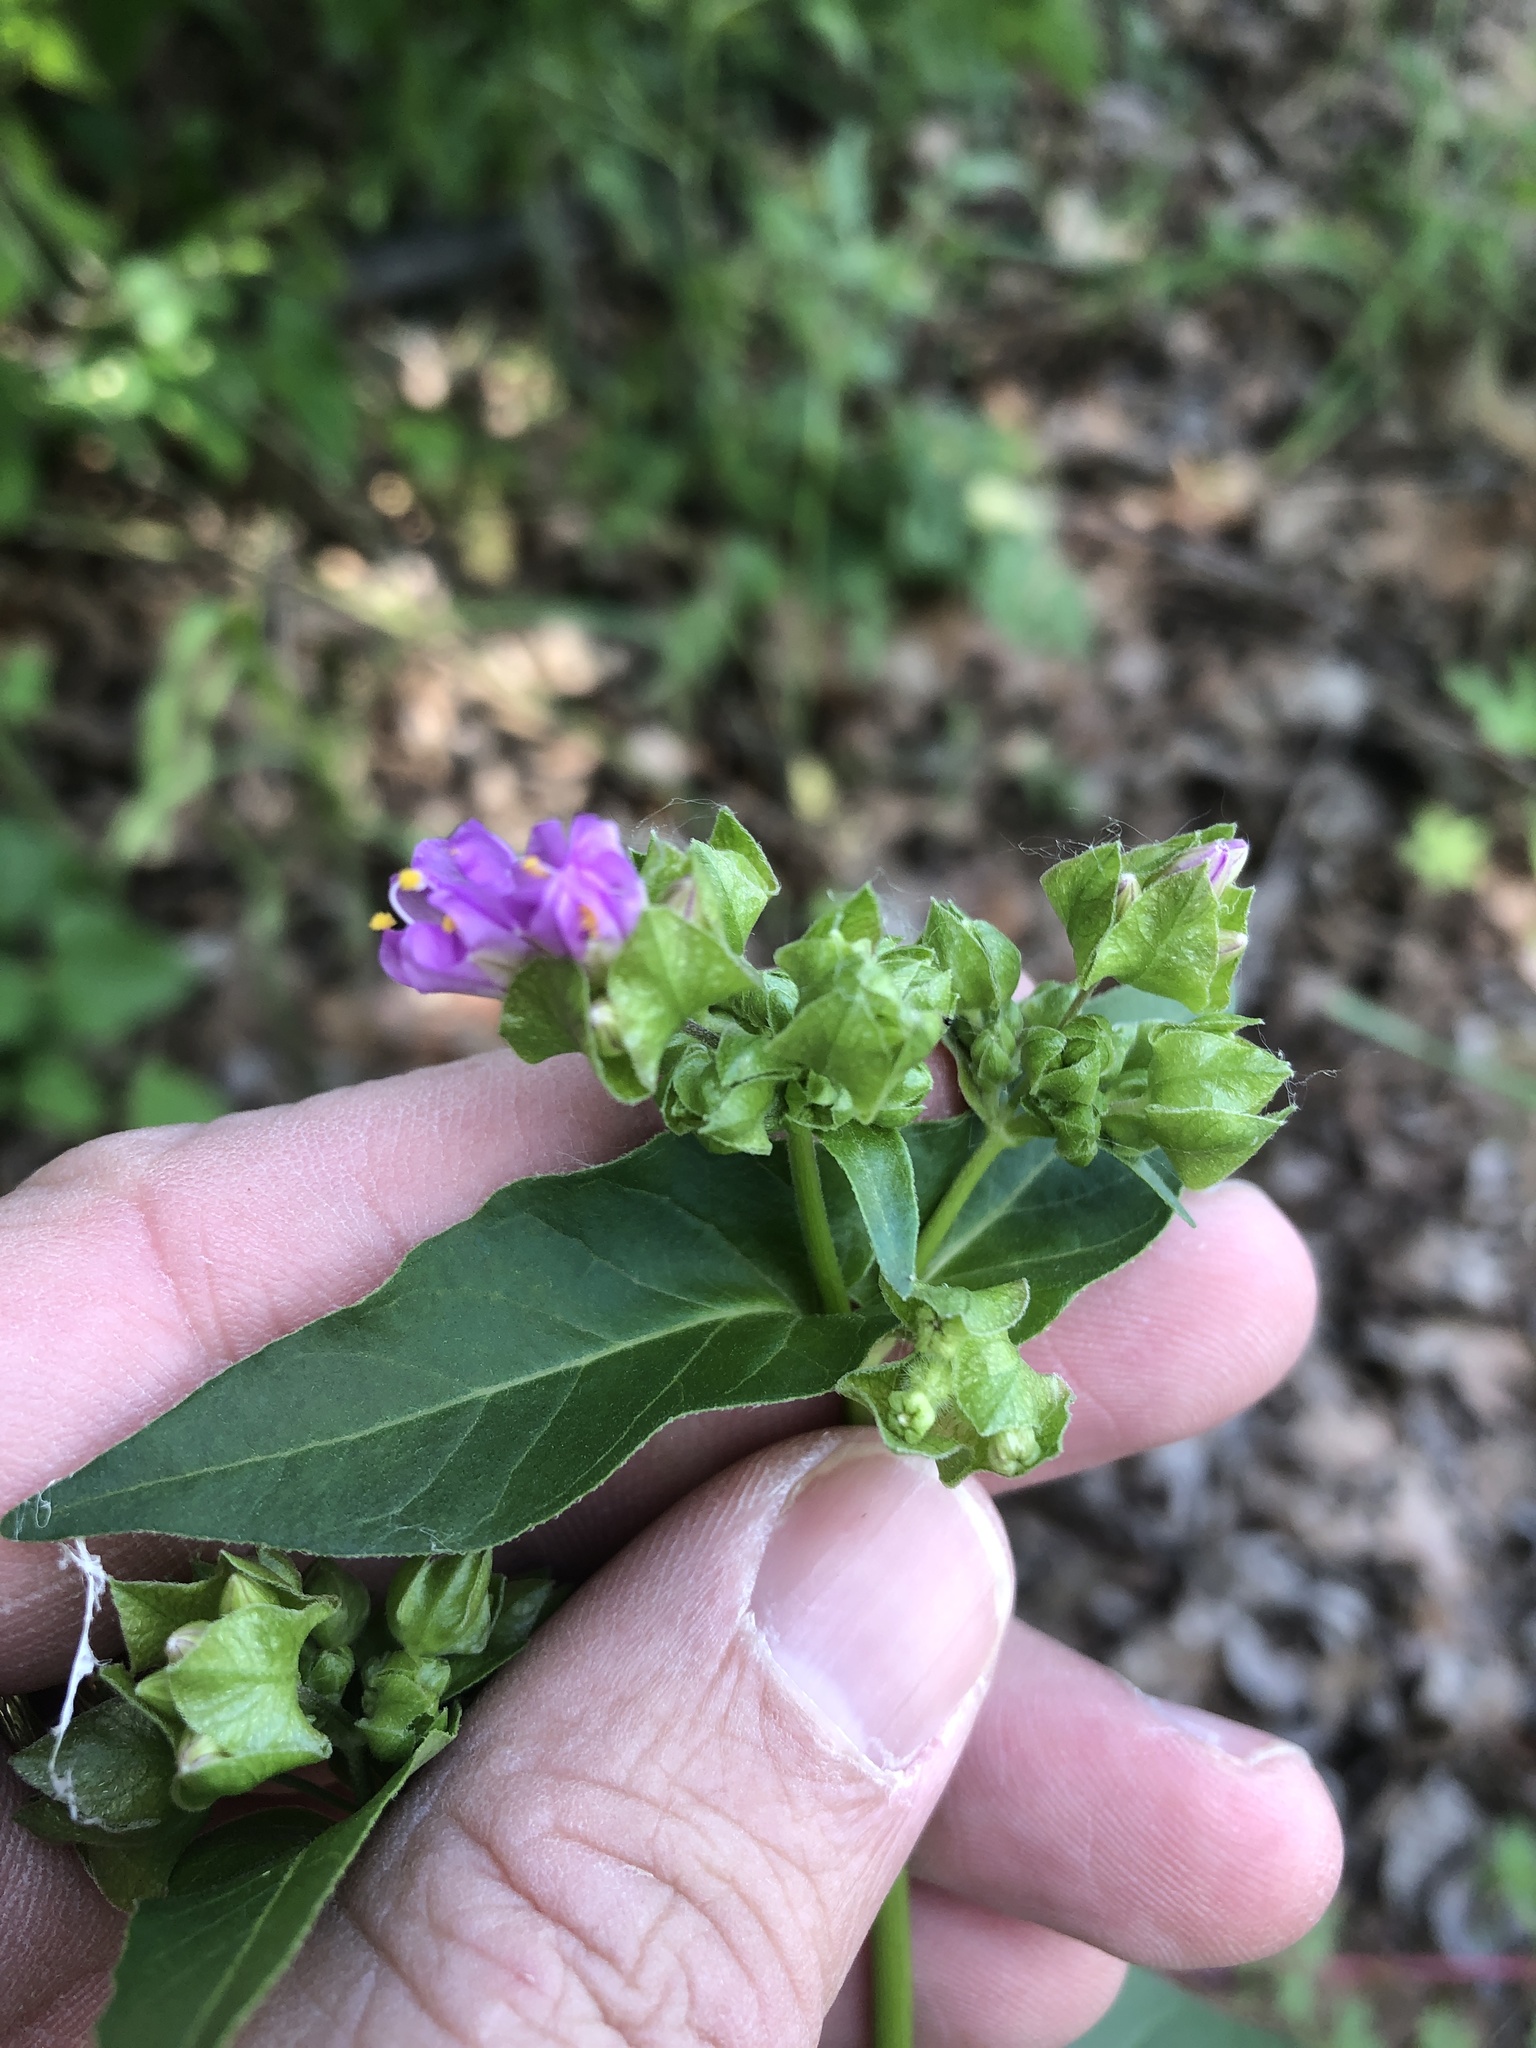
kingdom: Plantae
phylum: Tracheophyta
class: Magnoliopsida
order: Caryophyllales
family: Nyctaginaceae
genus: Mirabilis
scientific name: Mirabilis nyctaginea
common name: Umbrella wort
